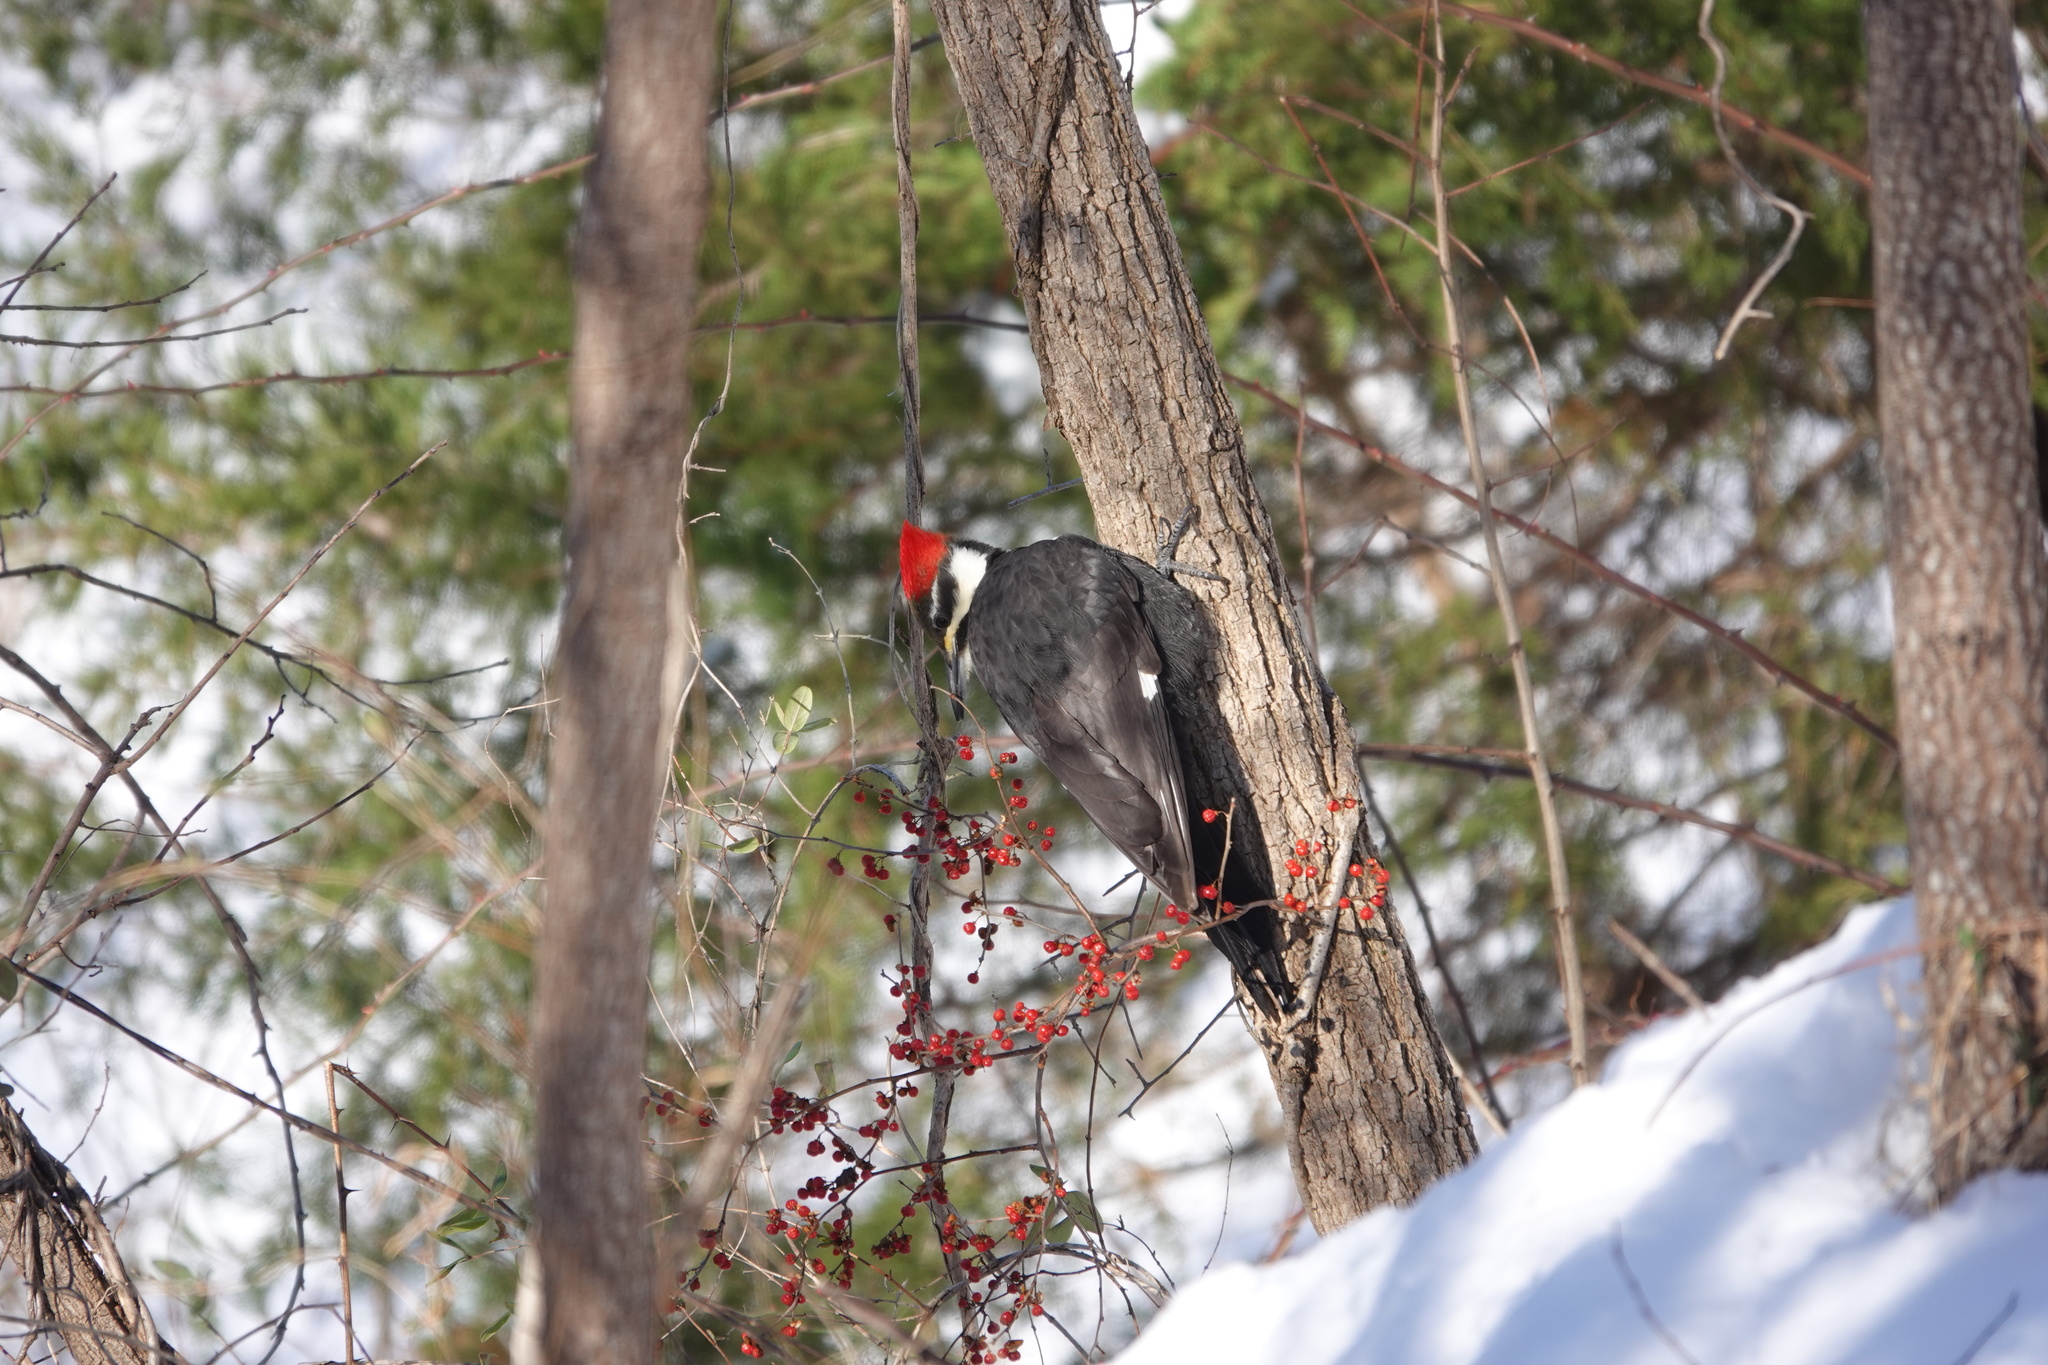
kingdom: Animalia
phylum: Chordata
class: Aves
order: Piciformes
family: Picidae
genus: Dryocopus
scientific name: Dryocopus pileatus
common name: Pileated woodpecker
